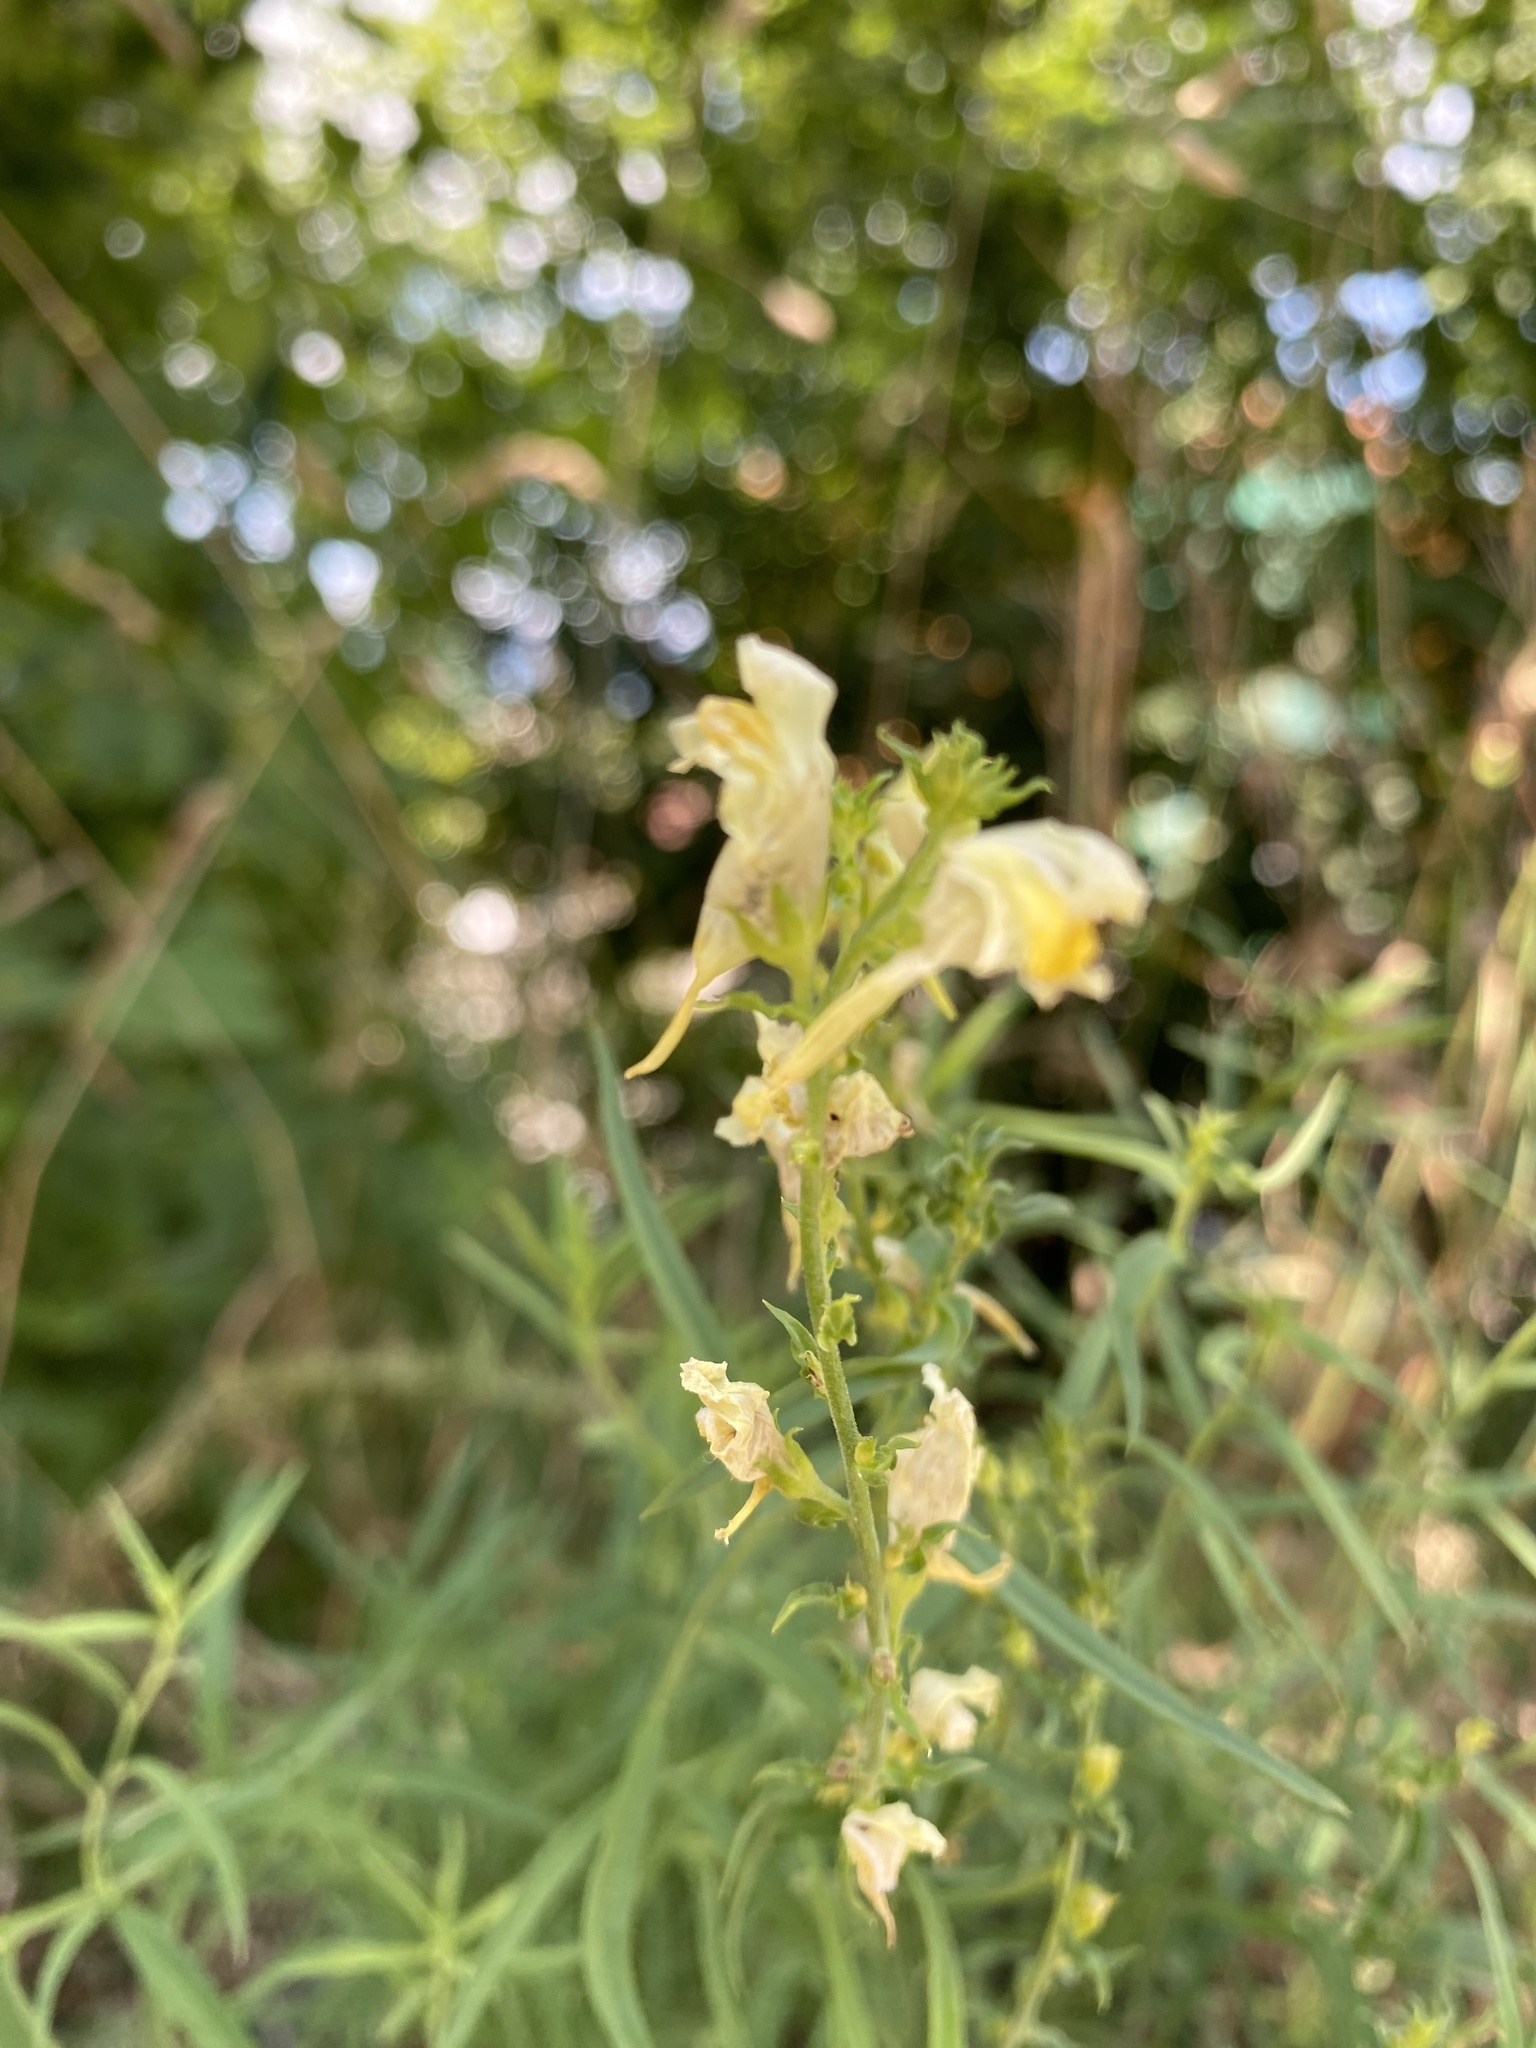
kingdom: Plantae
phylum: Tracheophyta
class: Magnoliopsida
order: Lamiales
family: Plantaginaceae
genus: Linaria
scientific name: Linaria vulgaris
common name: Butter and eggs
